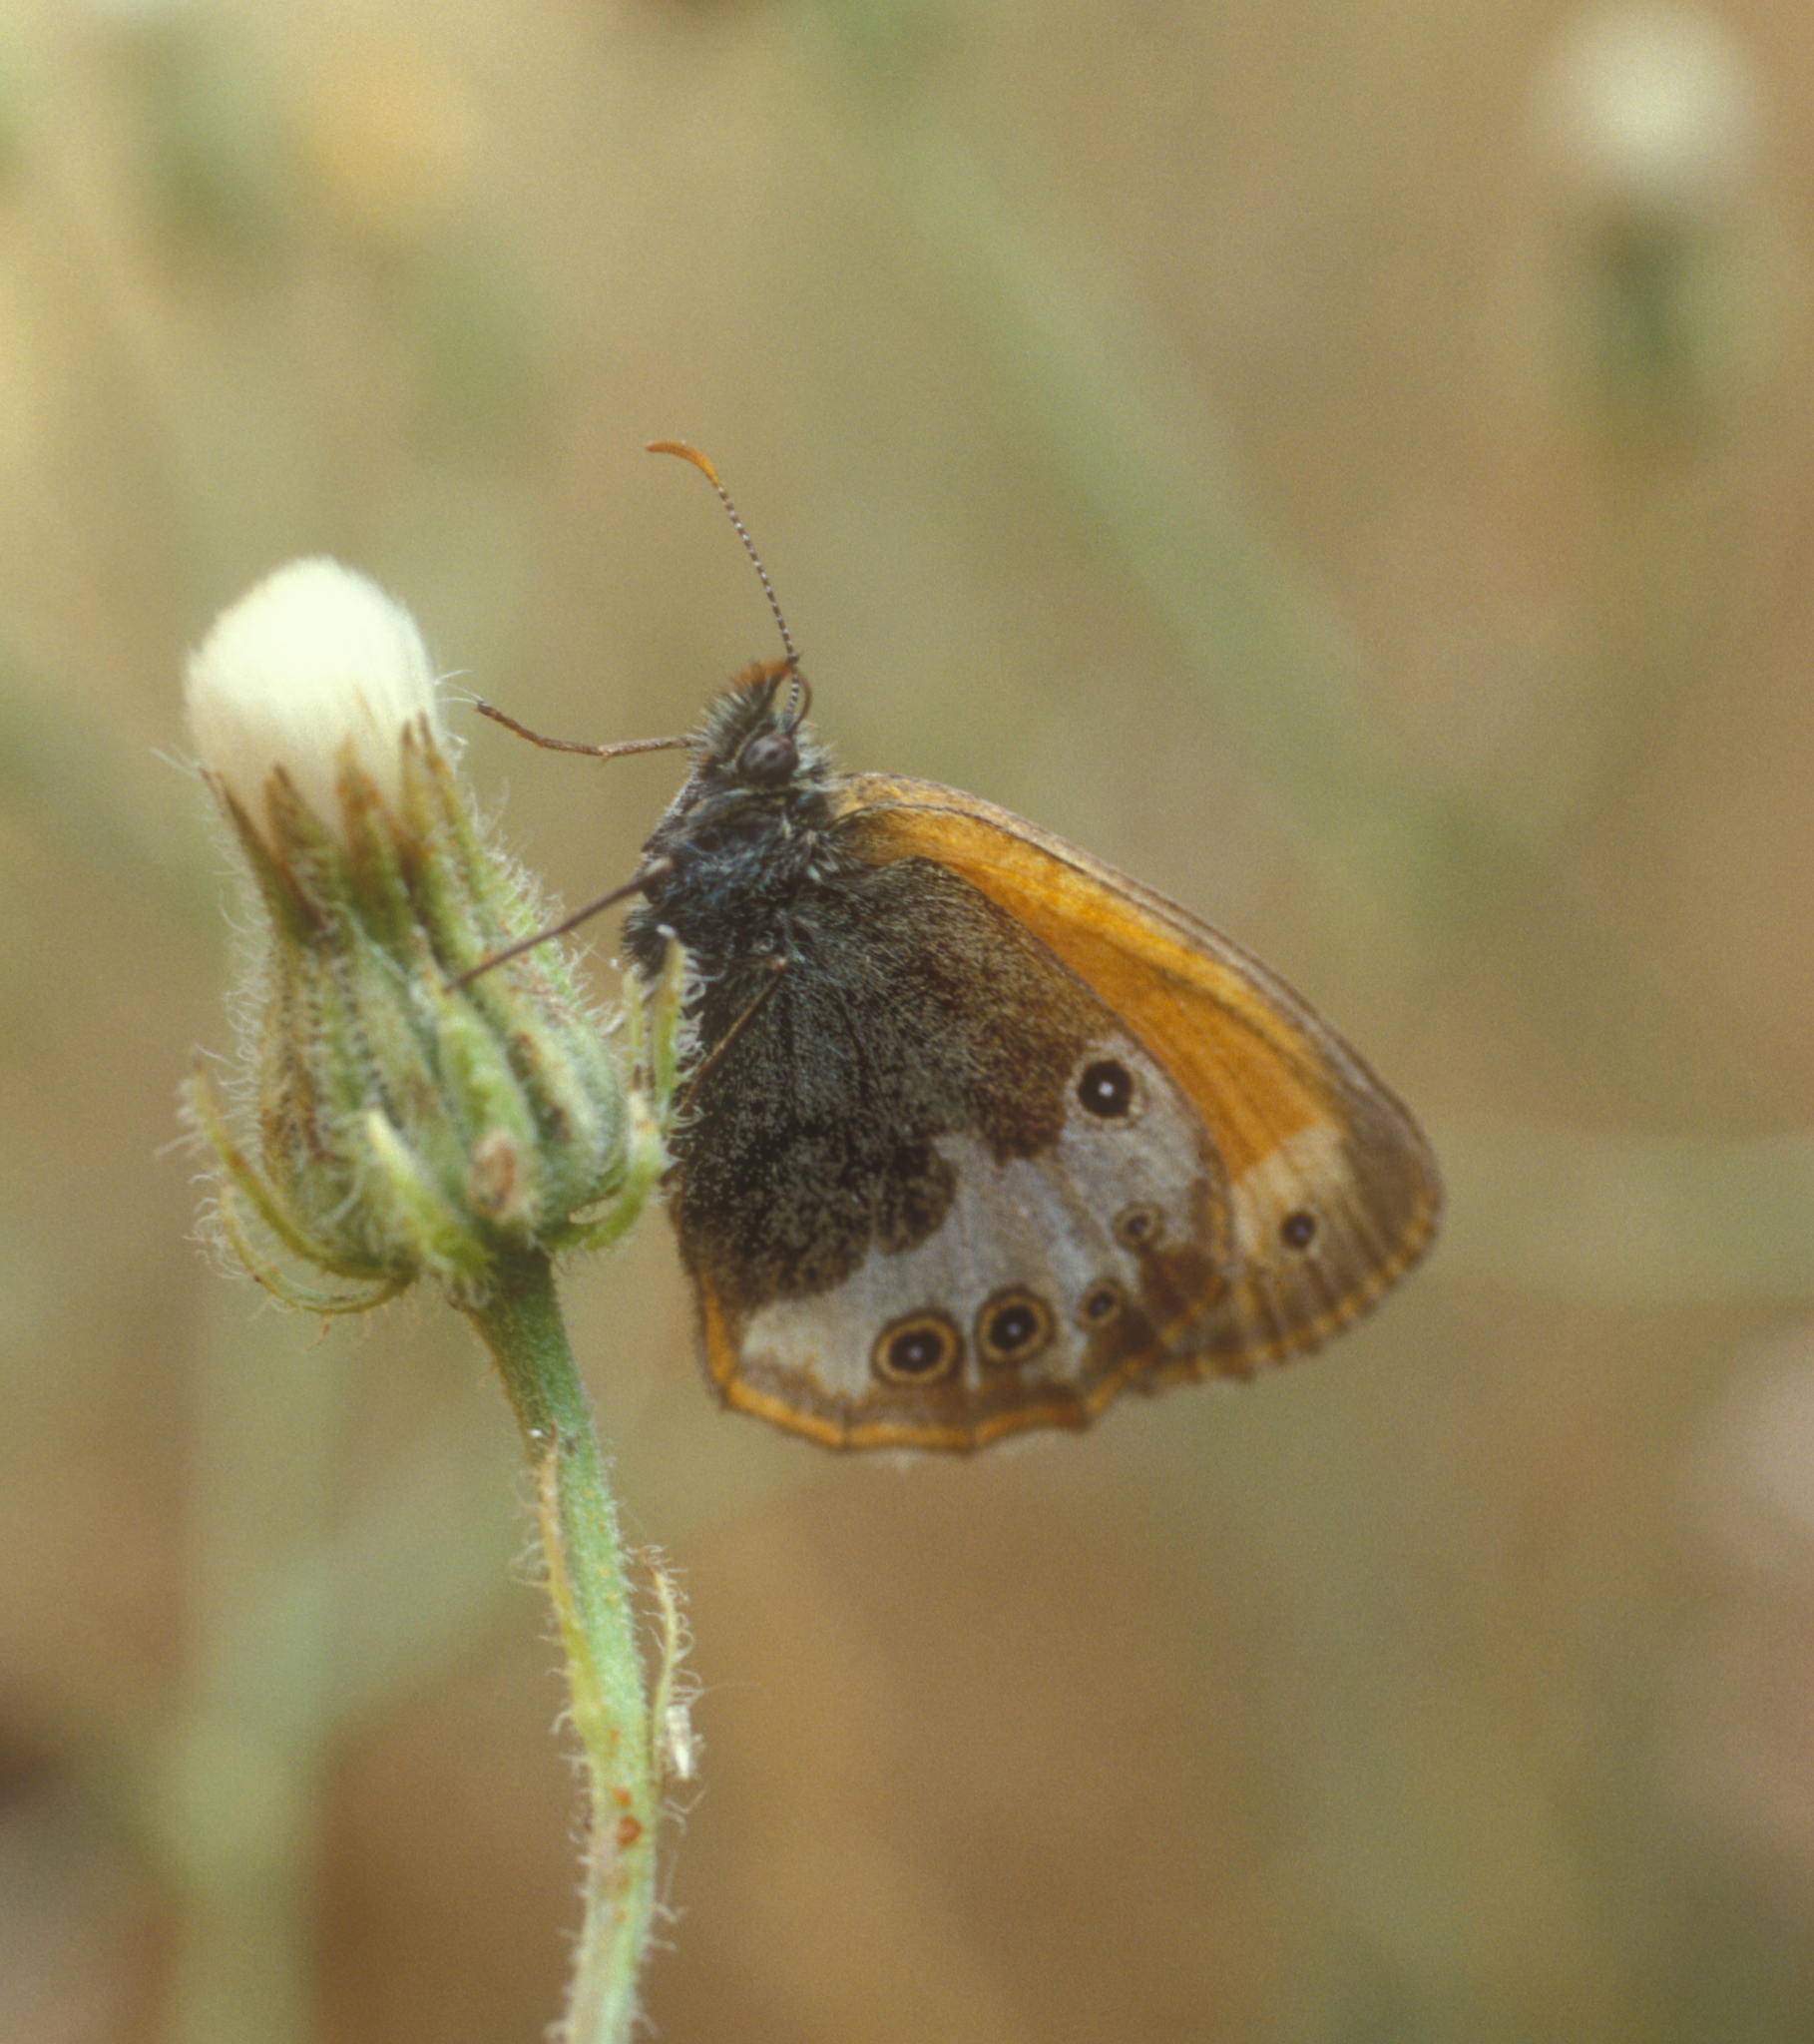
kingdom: Animalia
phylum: Arthropoda
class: Insecta
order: Lepidoptera
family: Nymphalidae
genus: Coenonympha
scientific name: Coenonympha arcania
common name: Pearly heath
